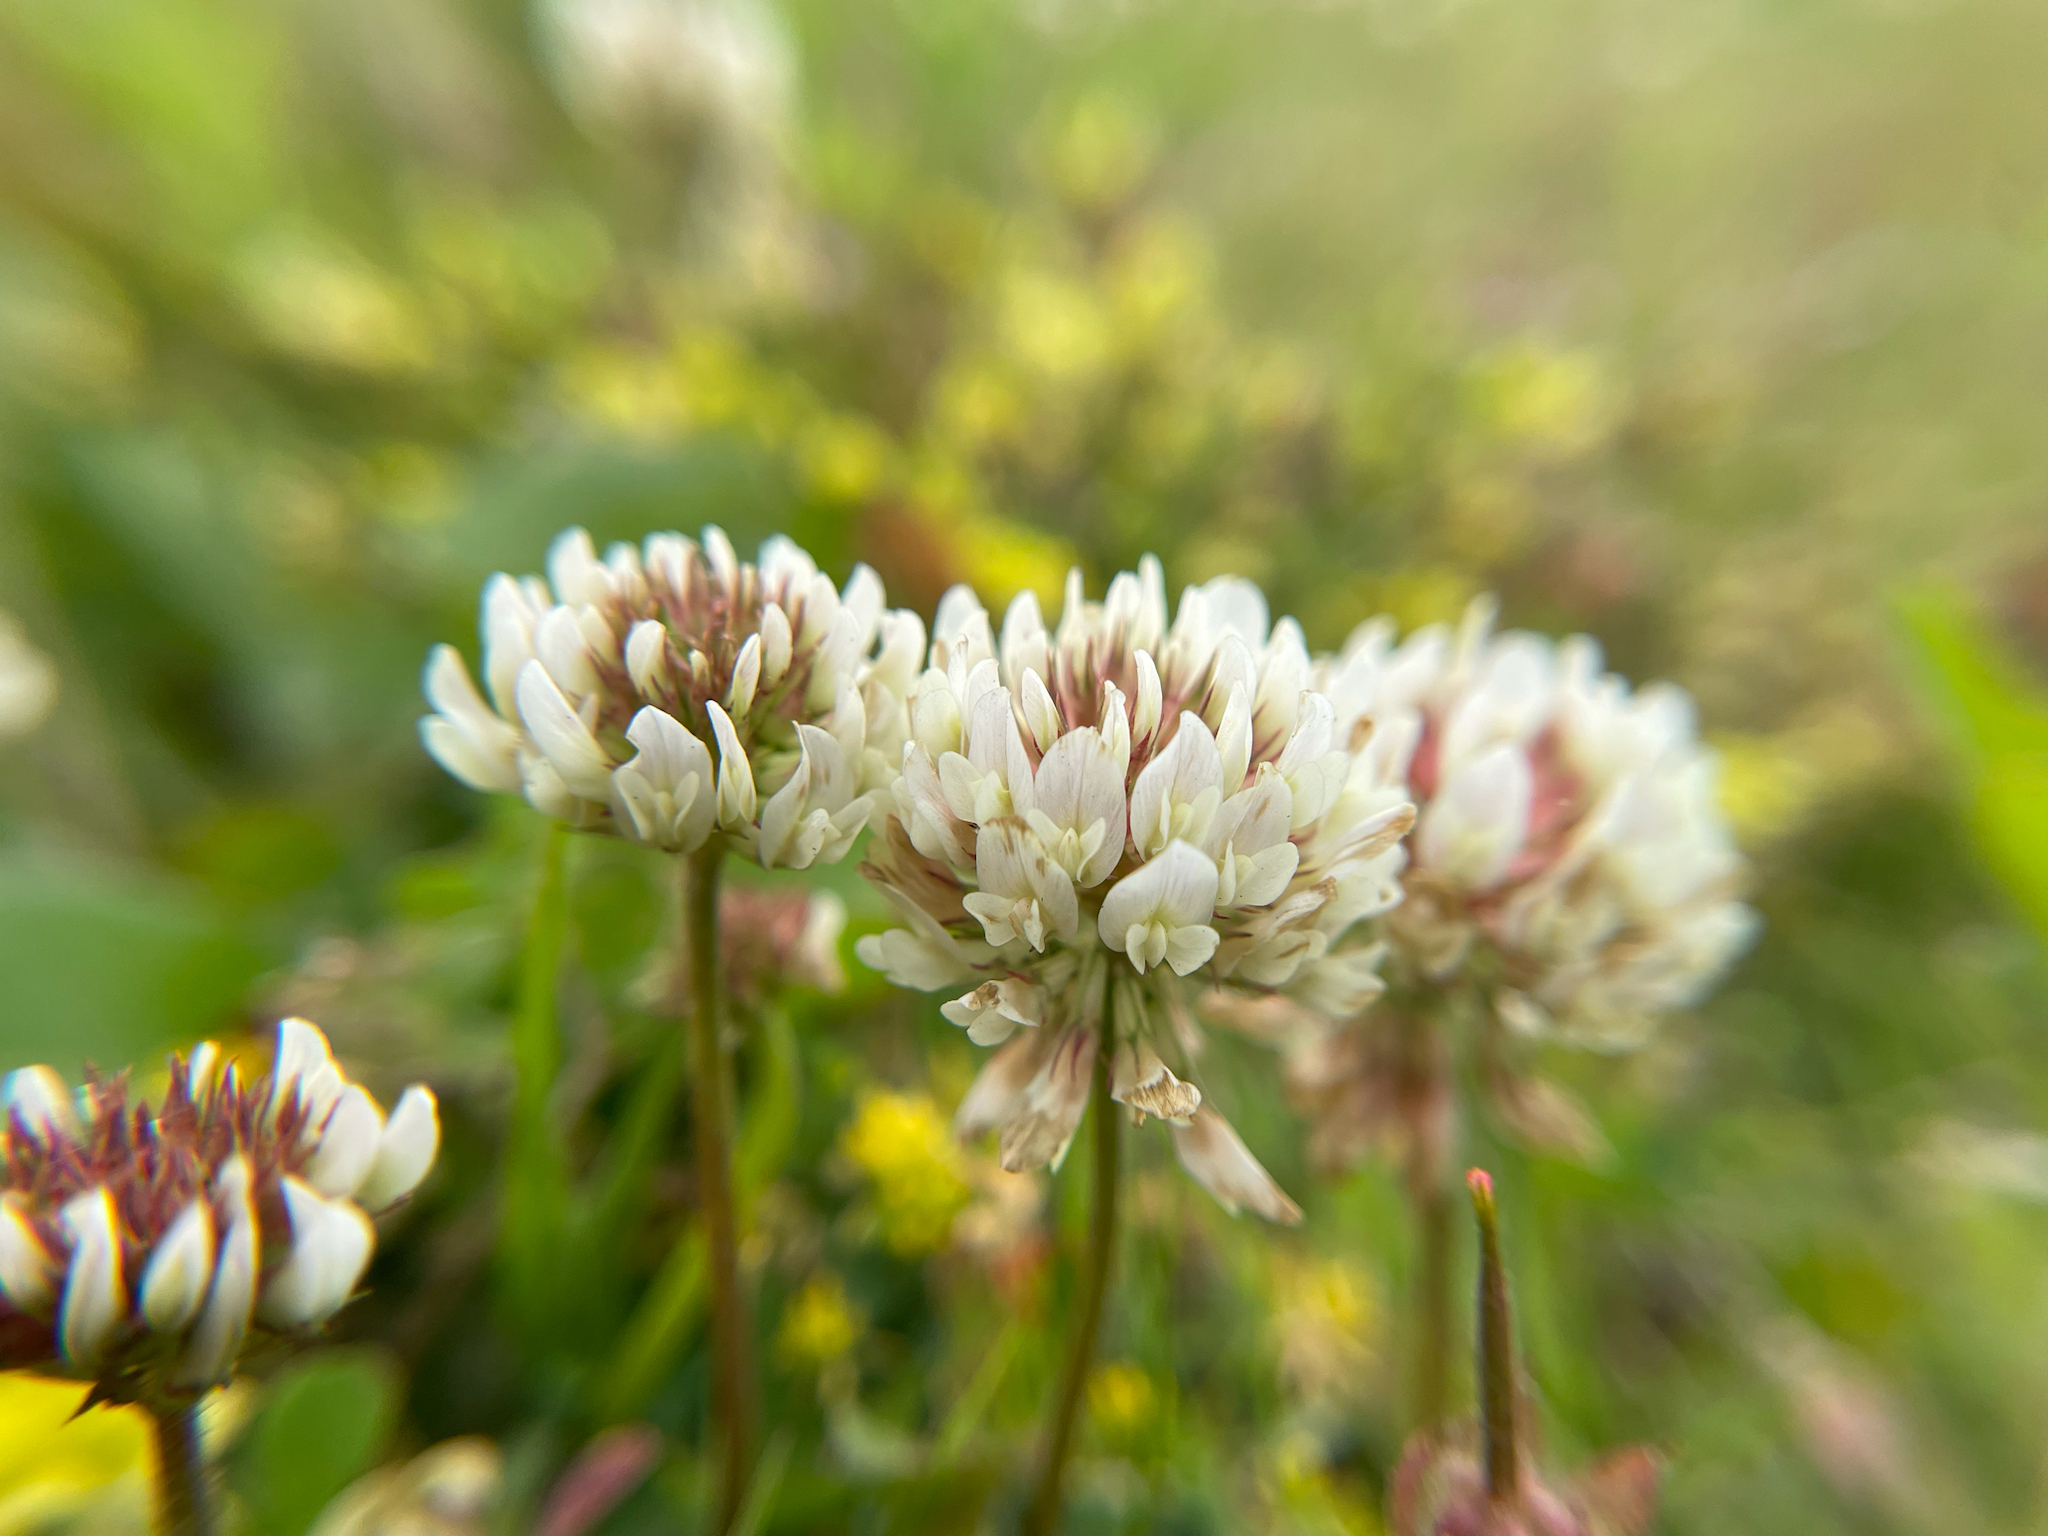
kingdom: Plantae
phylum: Tracheophyta
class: Magnoliopsida
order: Fabales
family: Fabaceae
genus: Trifolium
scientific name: Trifolium repens
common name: White clover
